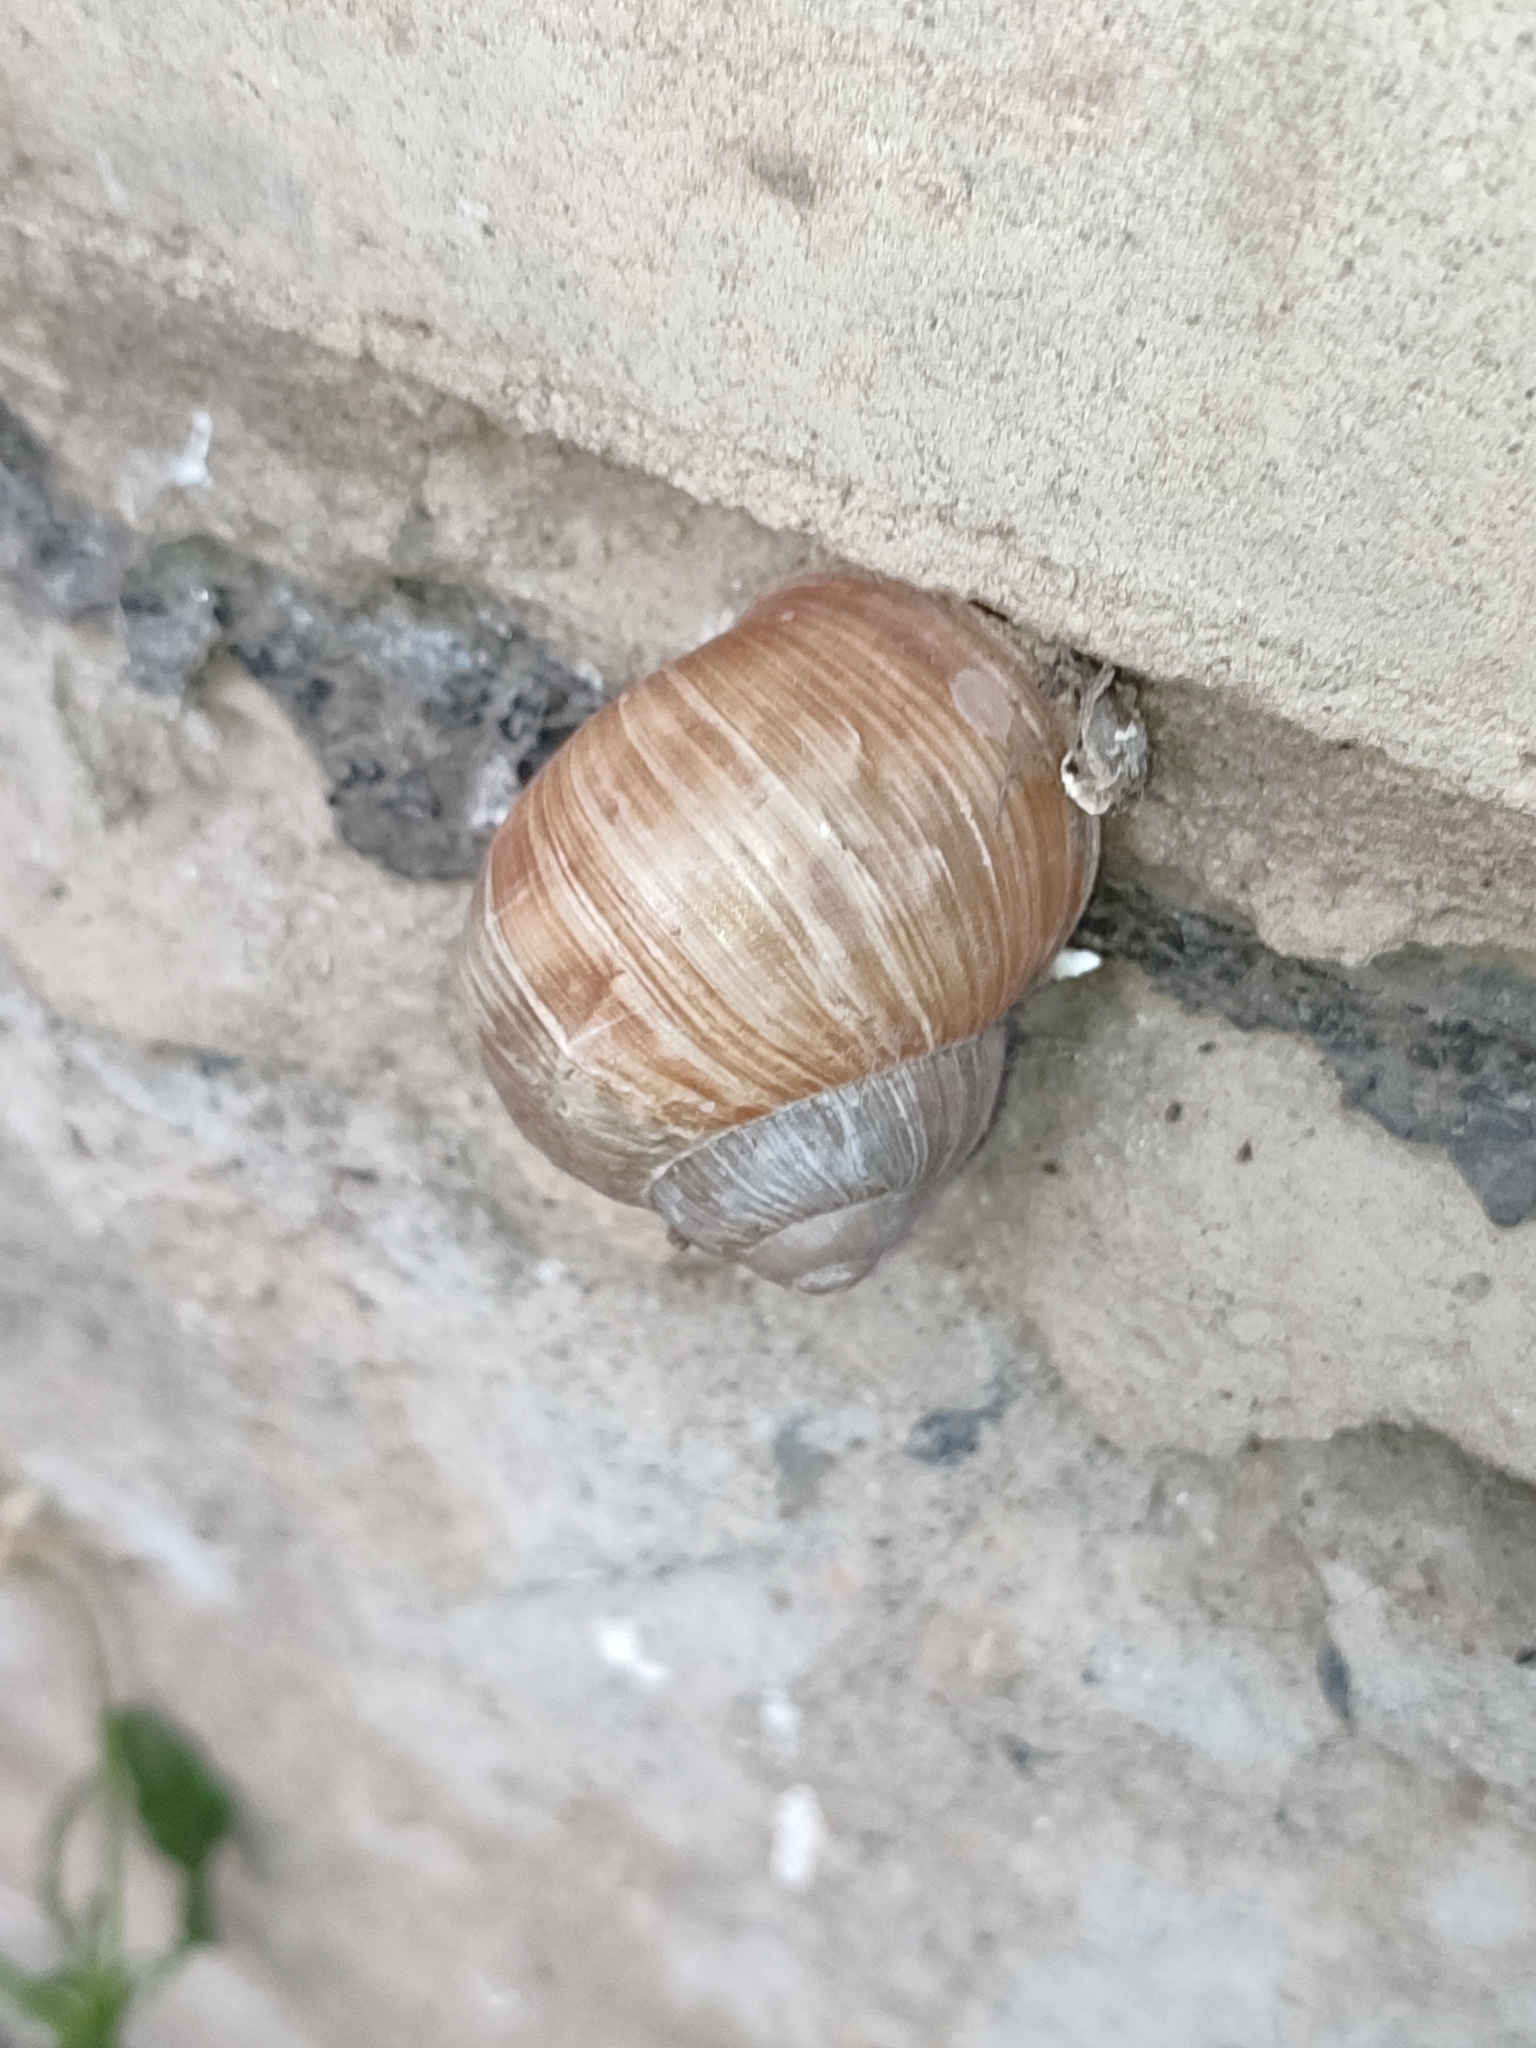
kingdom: Animalia
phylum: Mollusca
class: Gastropoda
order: Stylommatophora
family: Helicidae
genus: Helix
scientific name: Helix pomatia
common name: Roman snail
